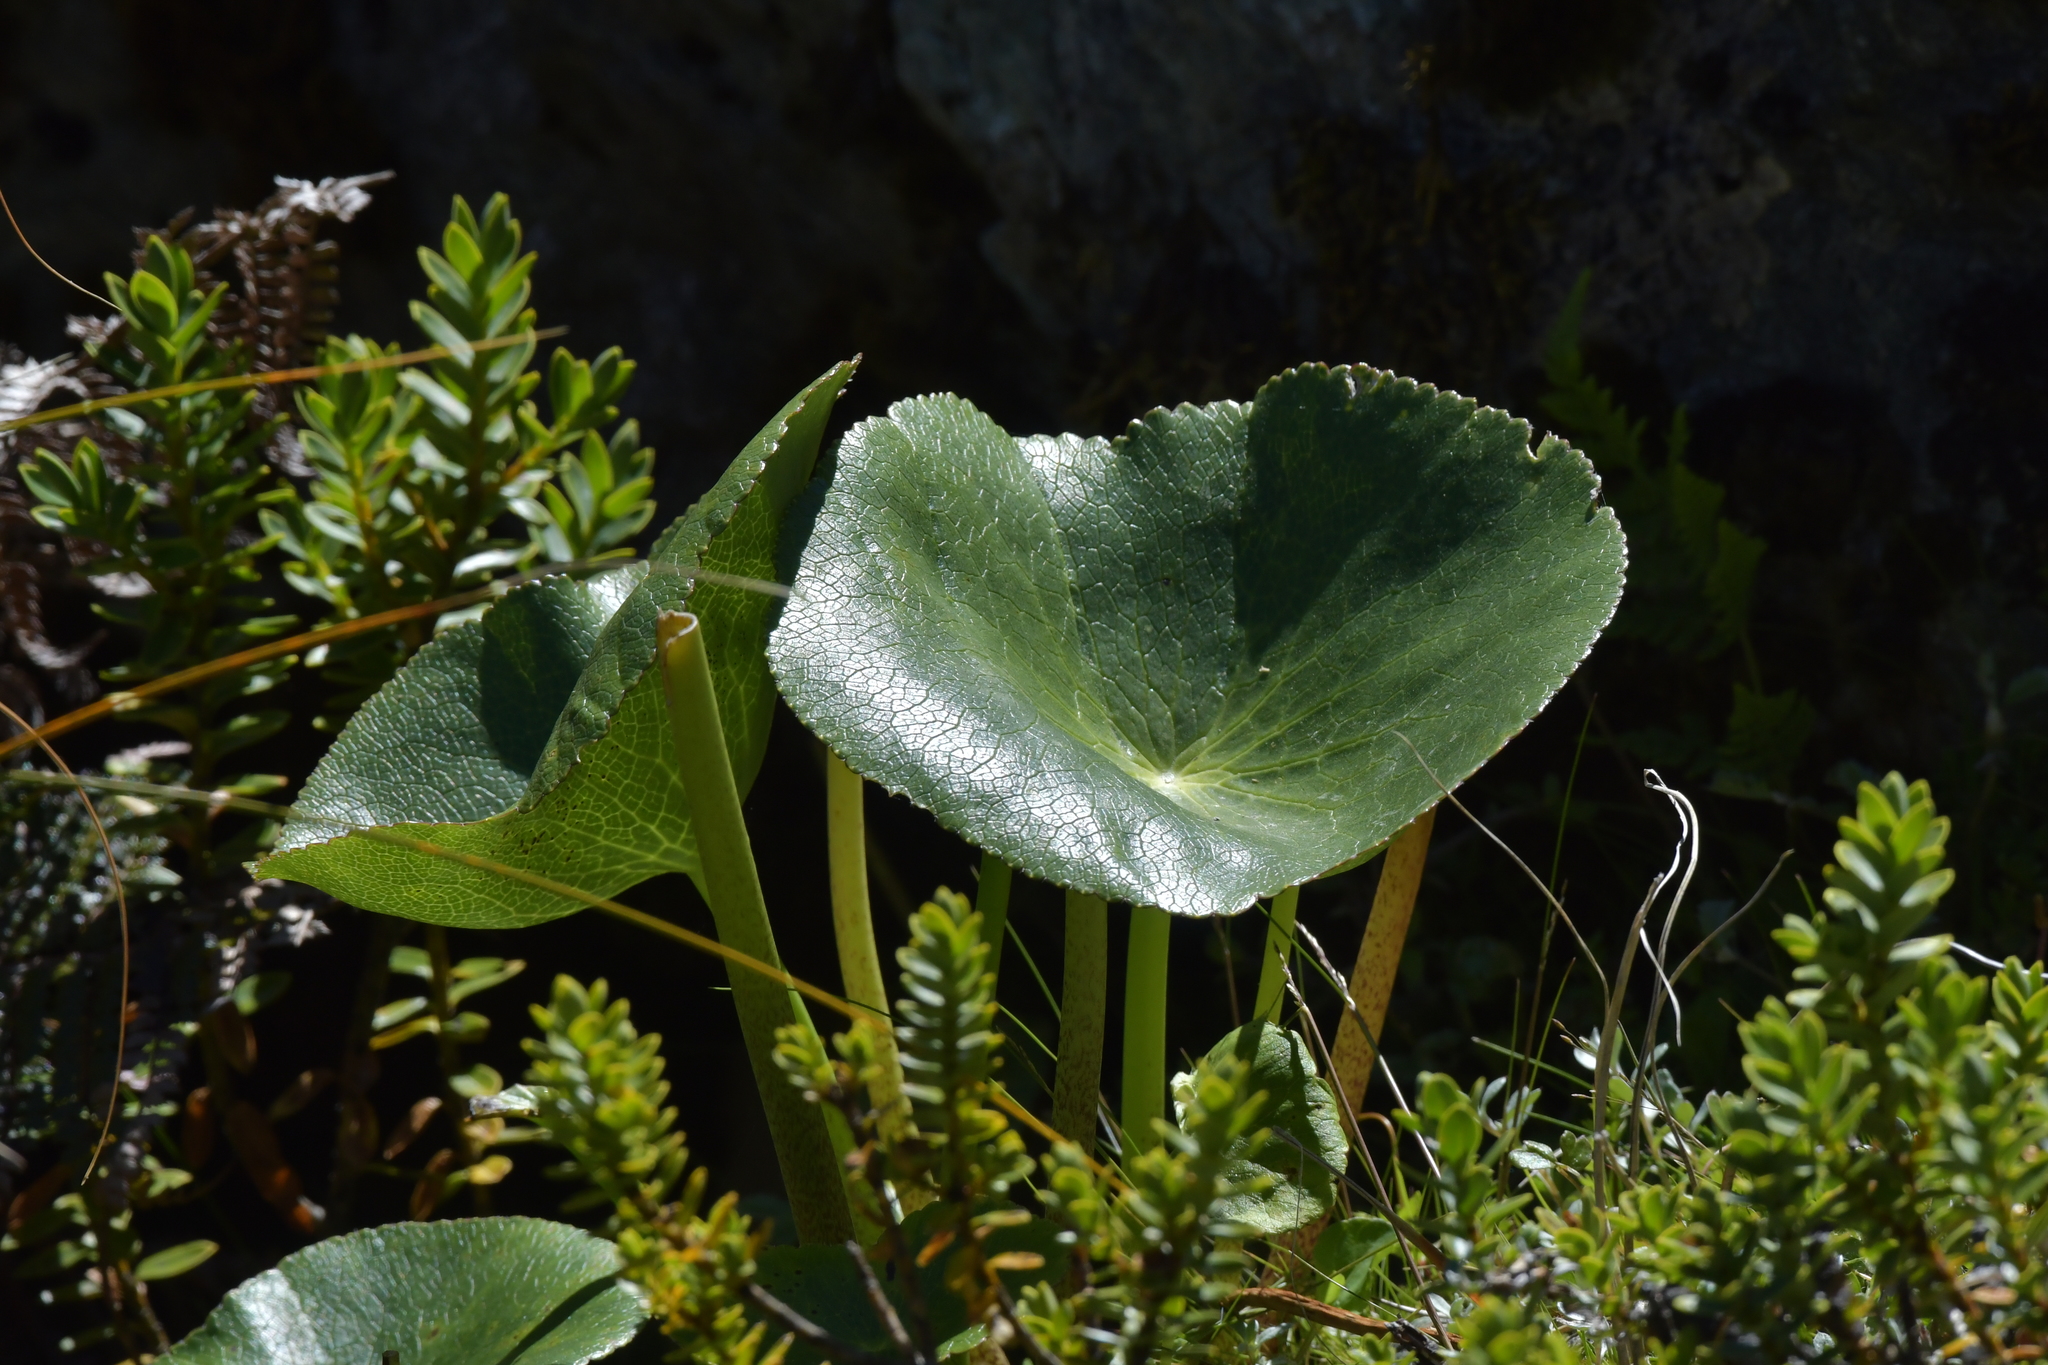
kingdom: Plantae
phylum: Tracheophyta
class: Magnoliopsida
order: Ranunculales
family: Ranunculaceae
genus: Ranunculus
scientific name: Ranunculus lyallii
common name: Mountain-lily
